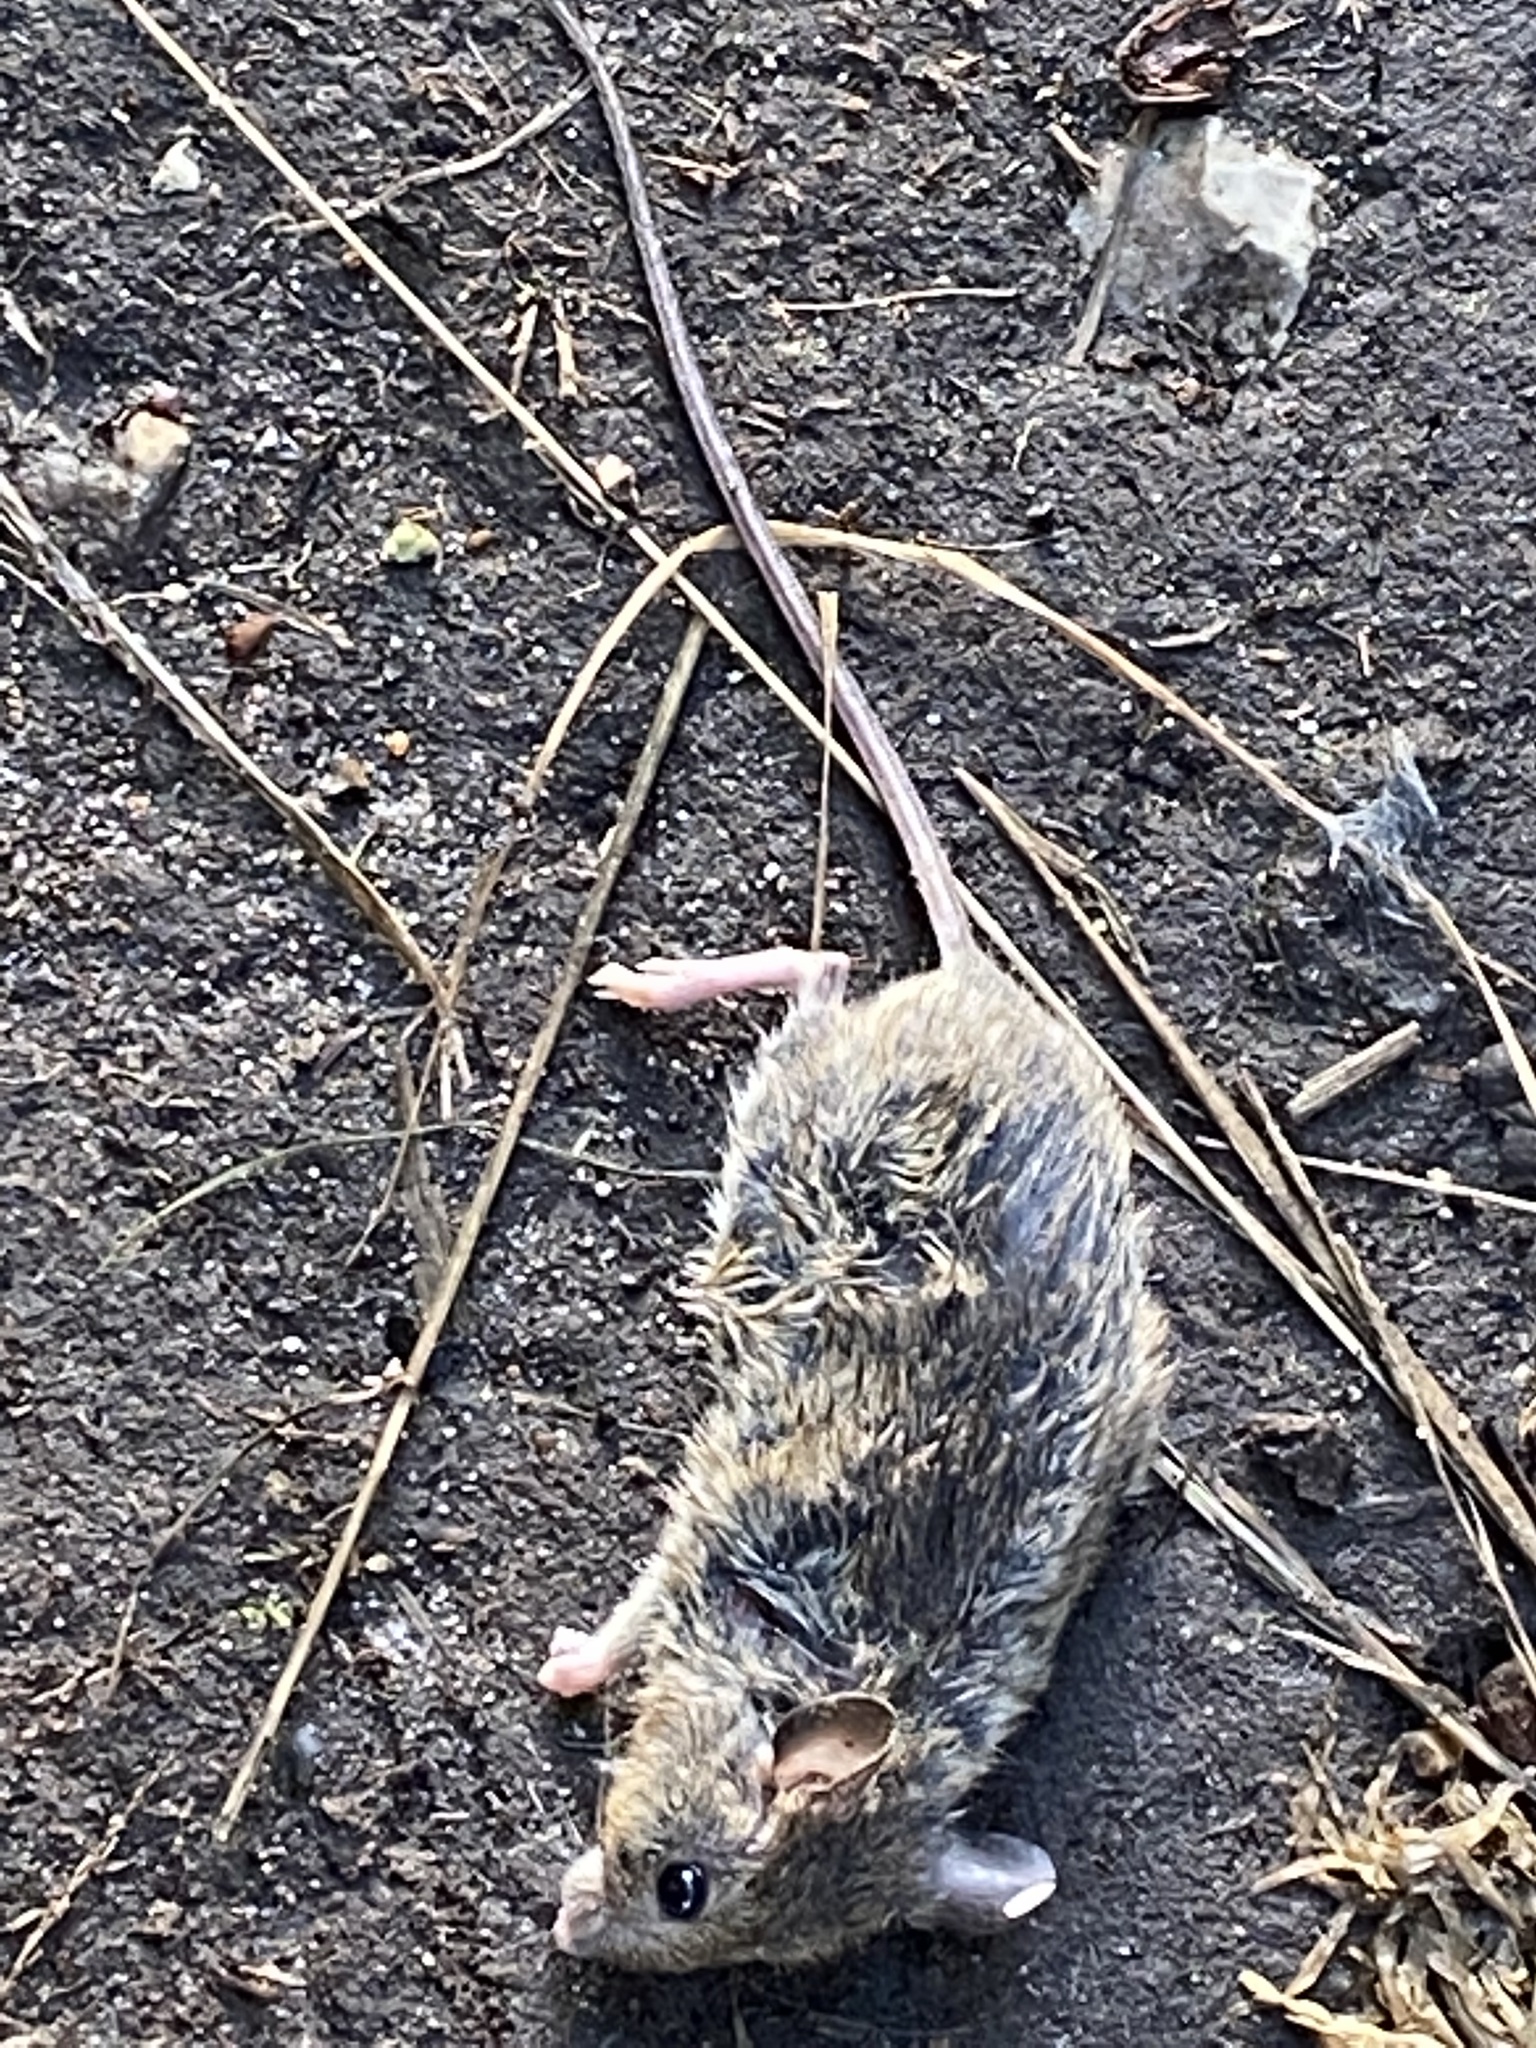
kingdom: Animalia
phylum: Chordata
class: Mammalia
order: Rodentia
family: Muridae
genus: Apodemus
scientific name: Apodemus sylvaticus
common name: Wood mouse
